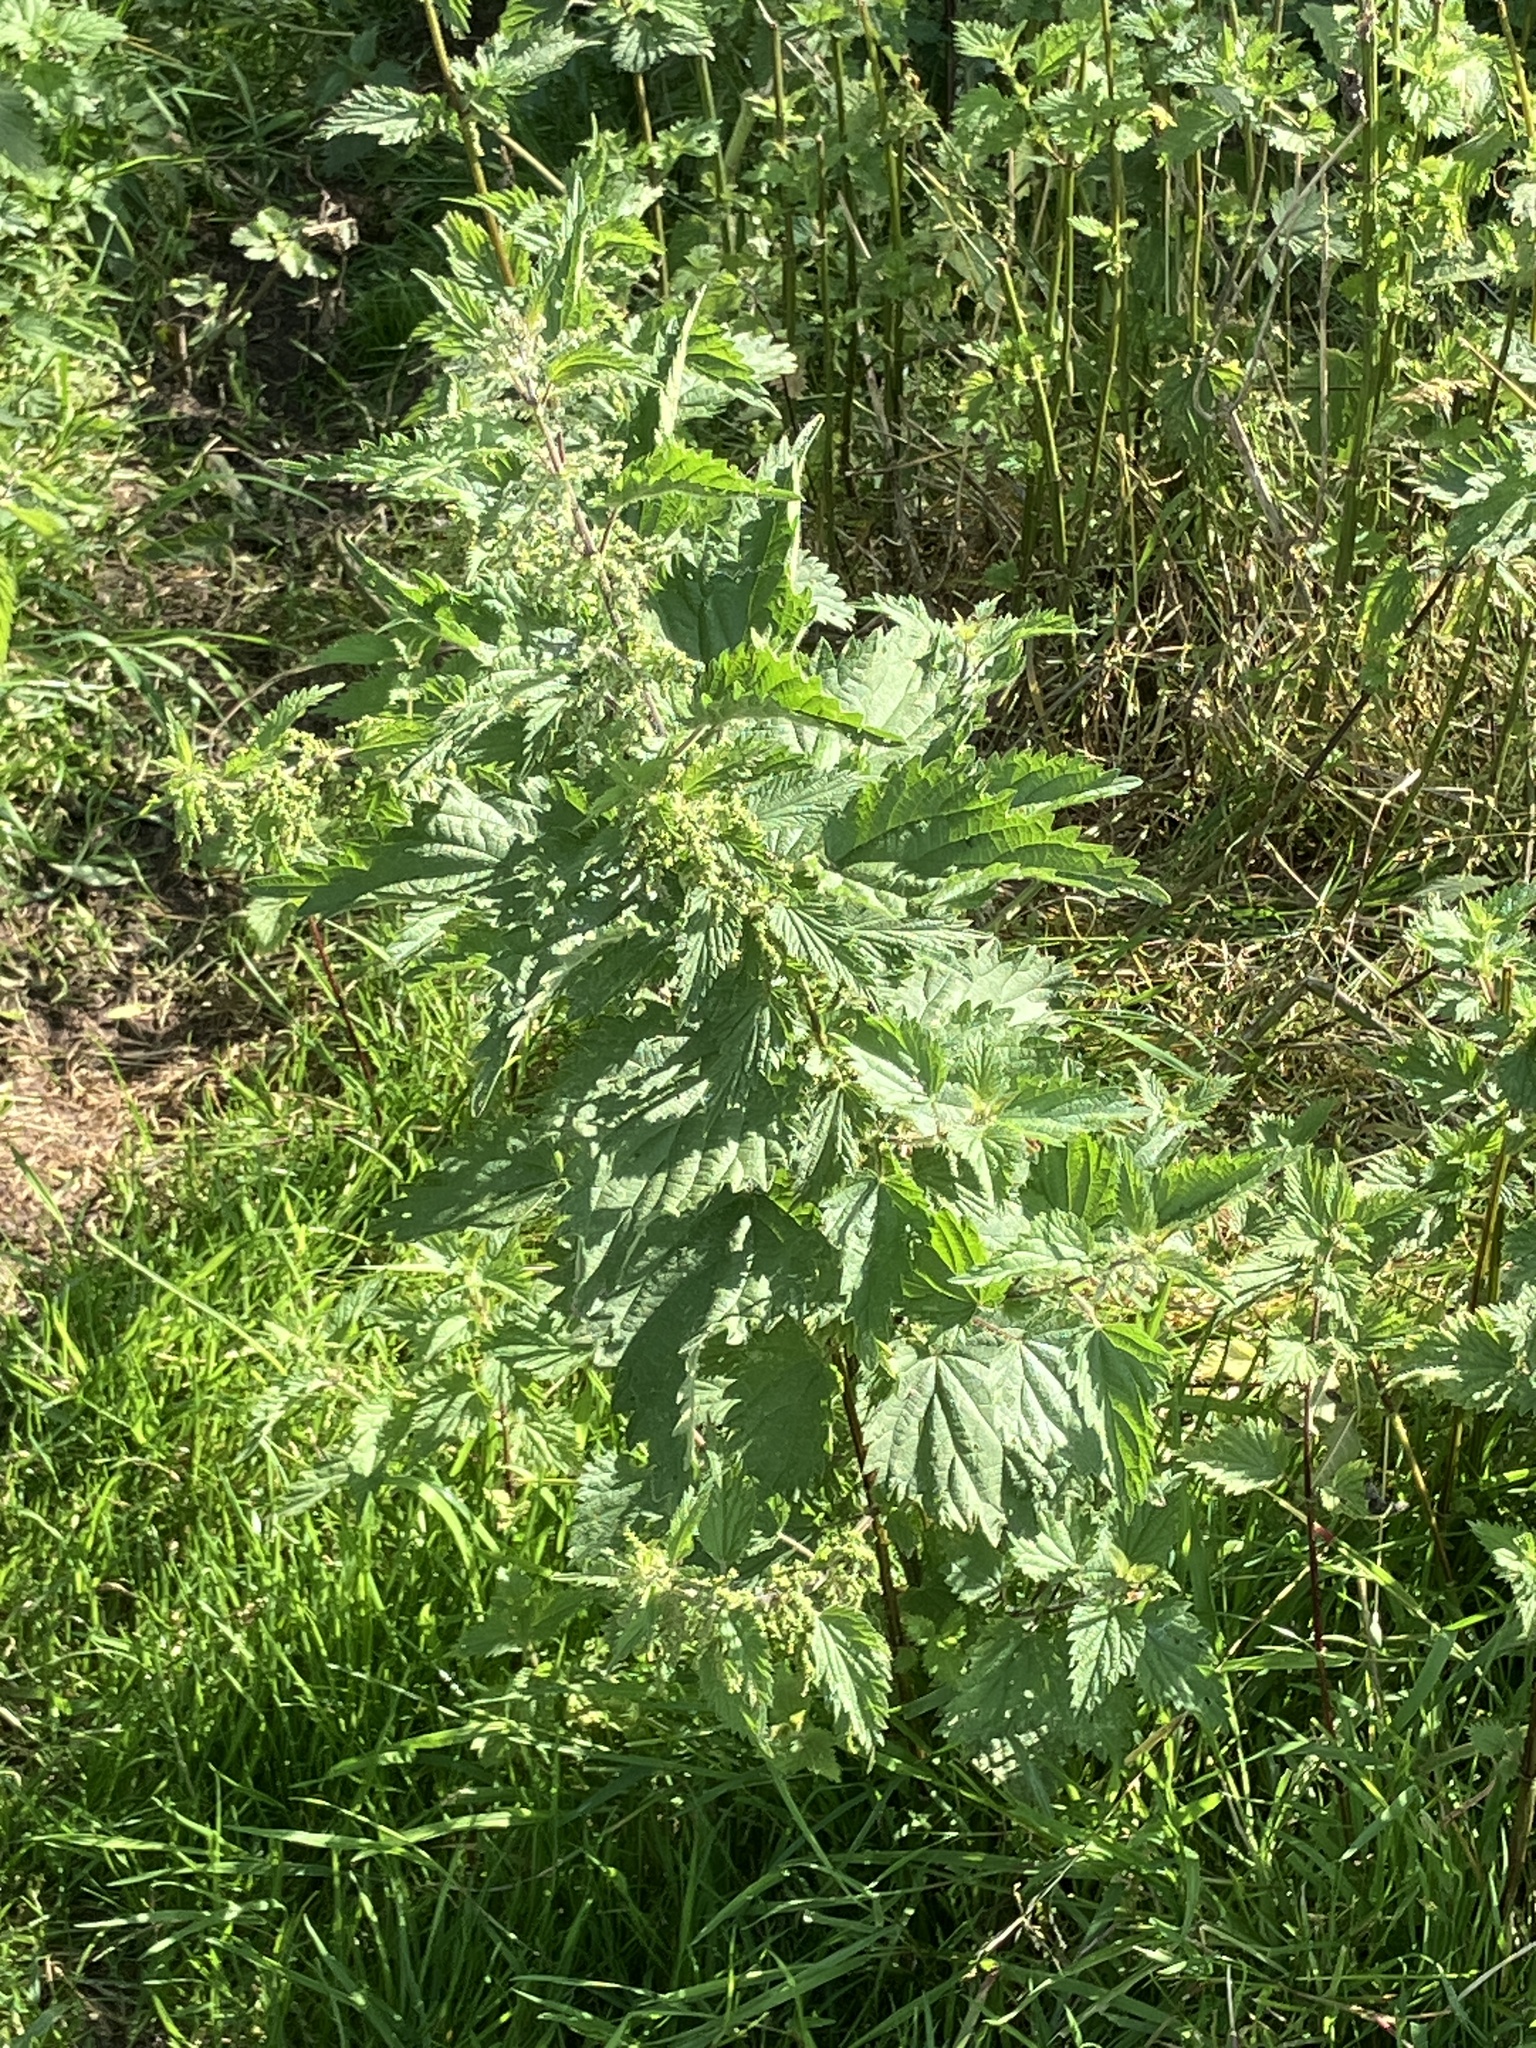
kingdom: Plantae
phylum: Tracheophyta
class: Magnoliopsida
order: Rosales
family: Urticaceae
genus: Urtica
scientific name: Urtica dioica
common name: Common nettle
